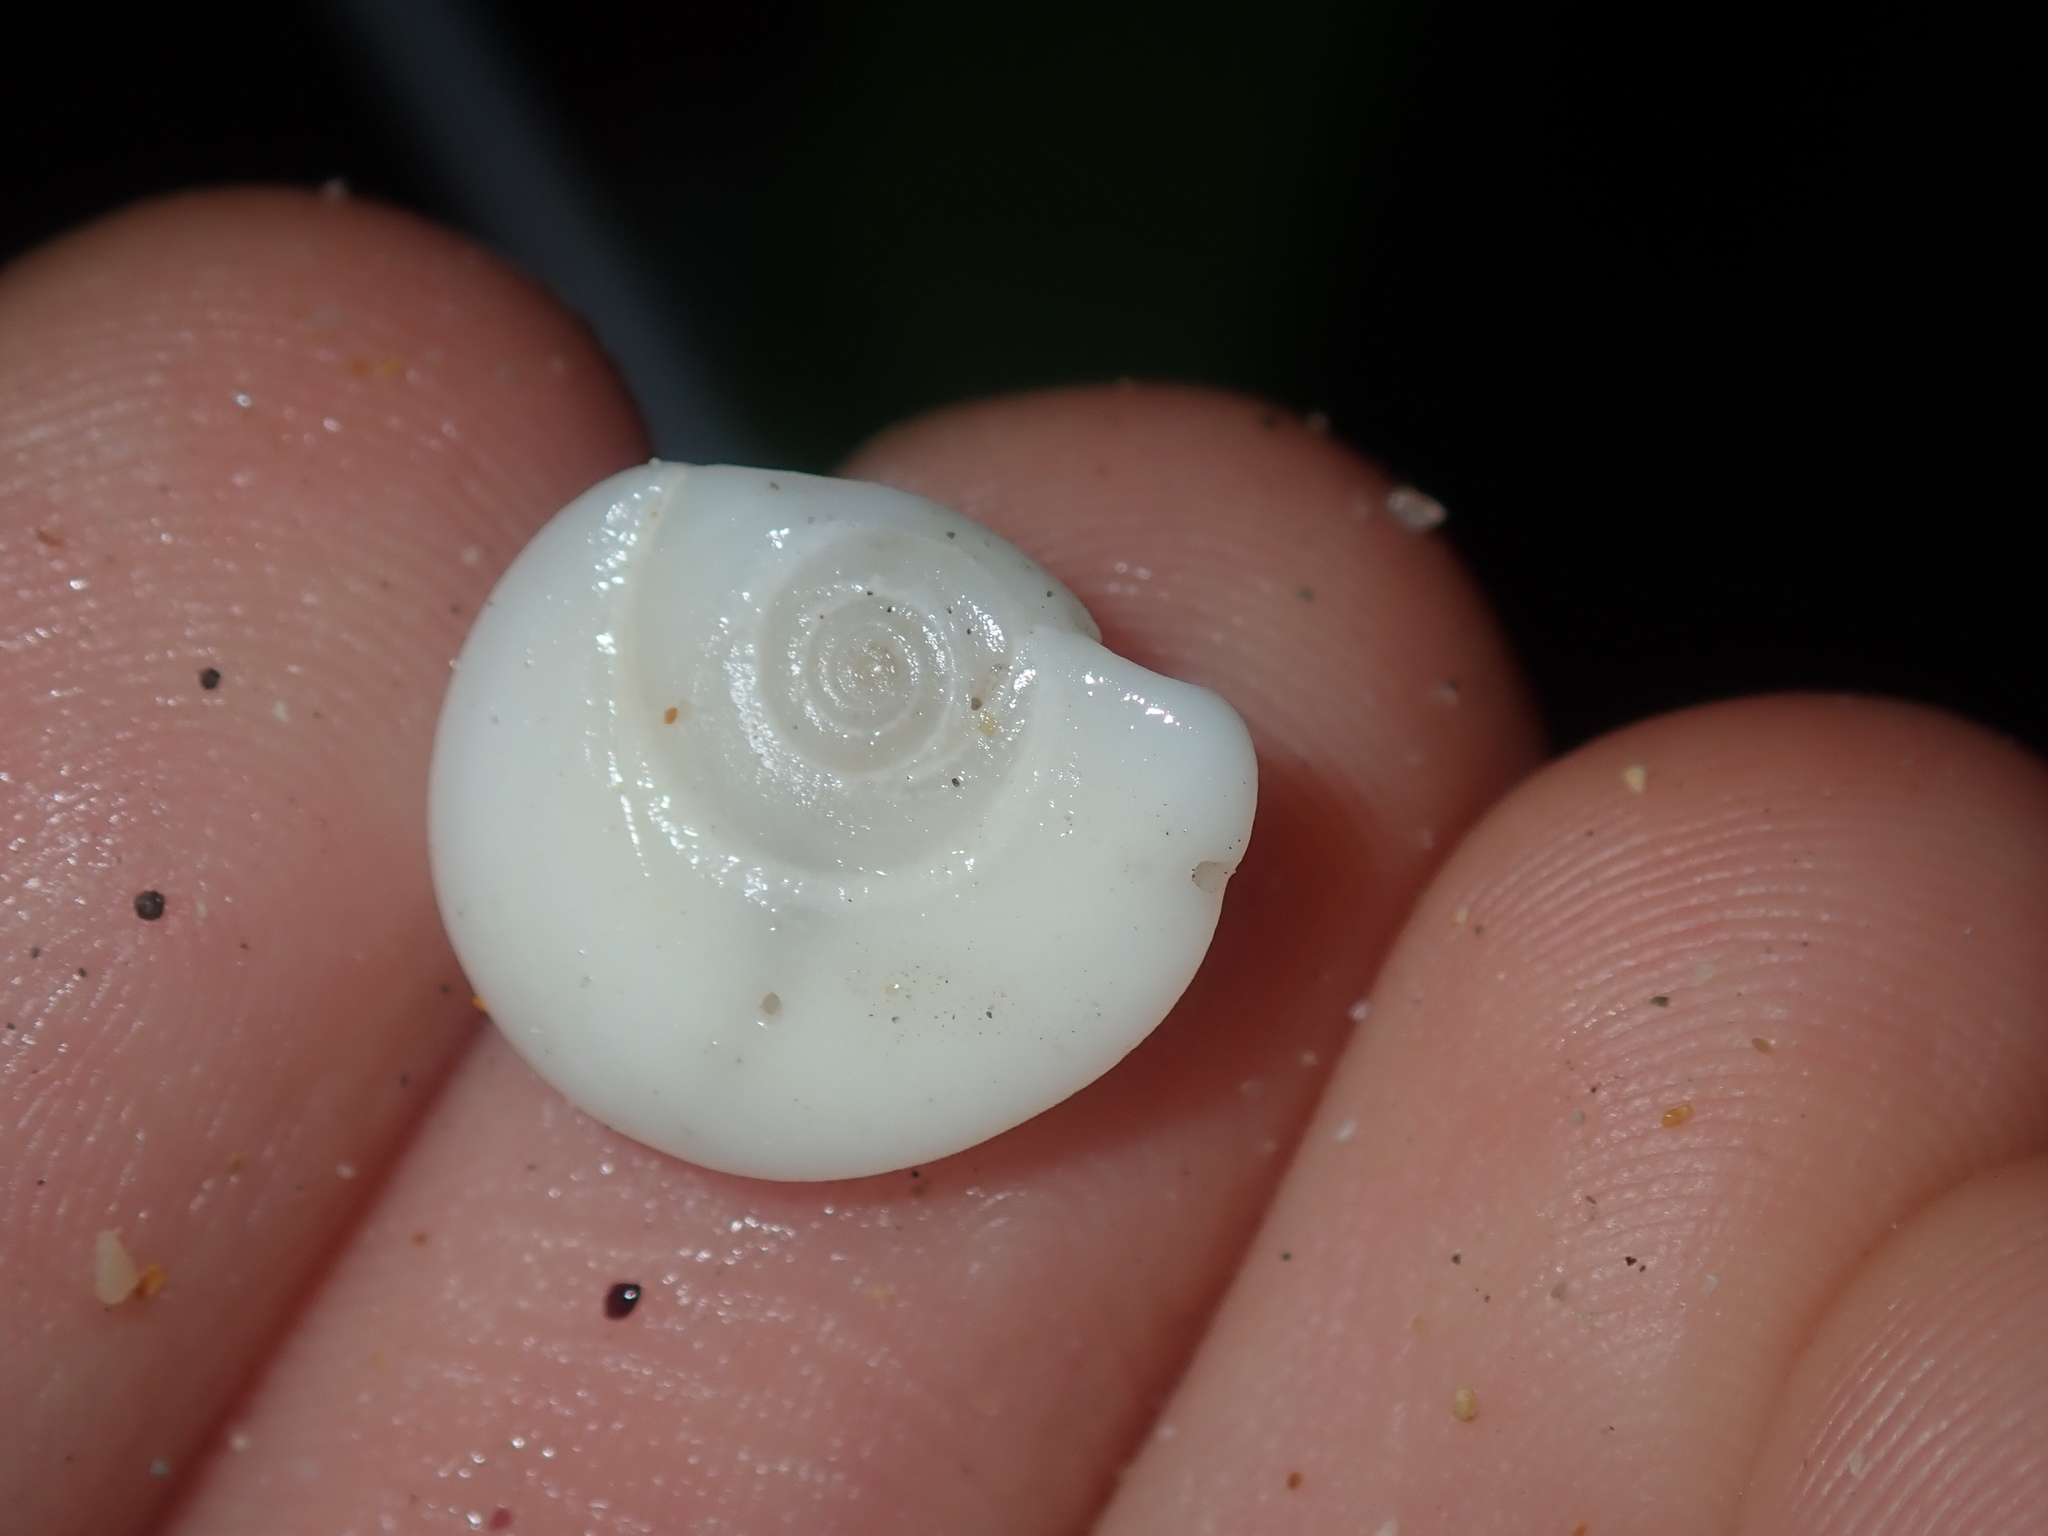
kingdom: Animalia
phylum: Mollusca
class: Gastropoda
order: Trochida
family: Turbinidae
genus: Lunella
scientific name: Lunella torquata
